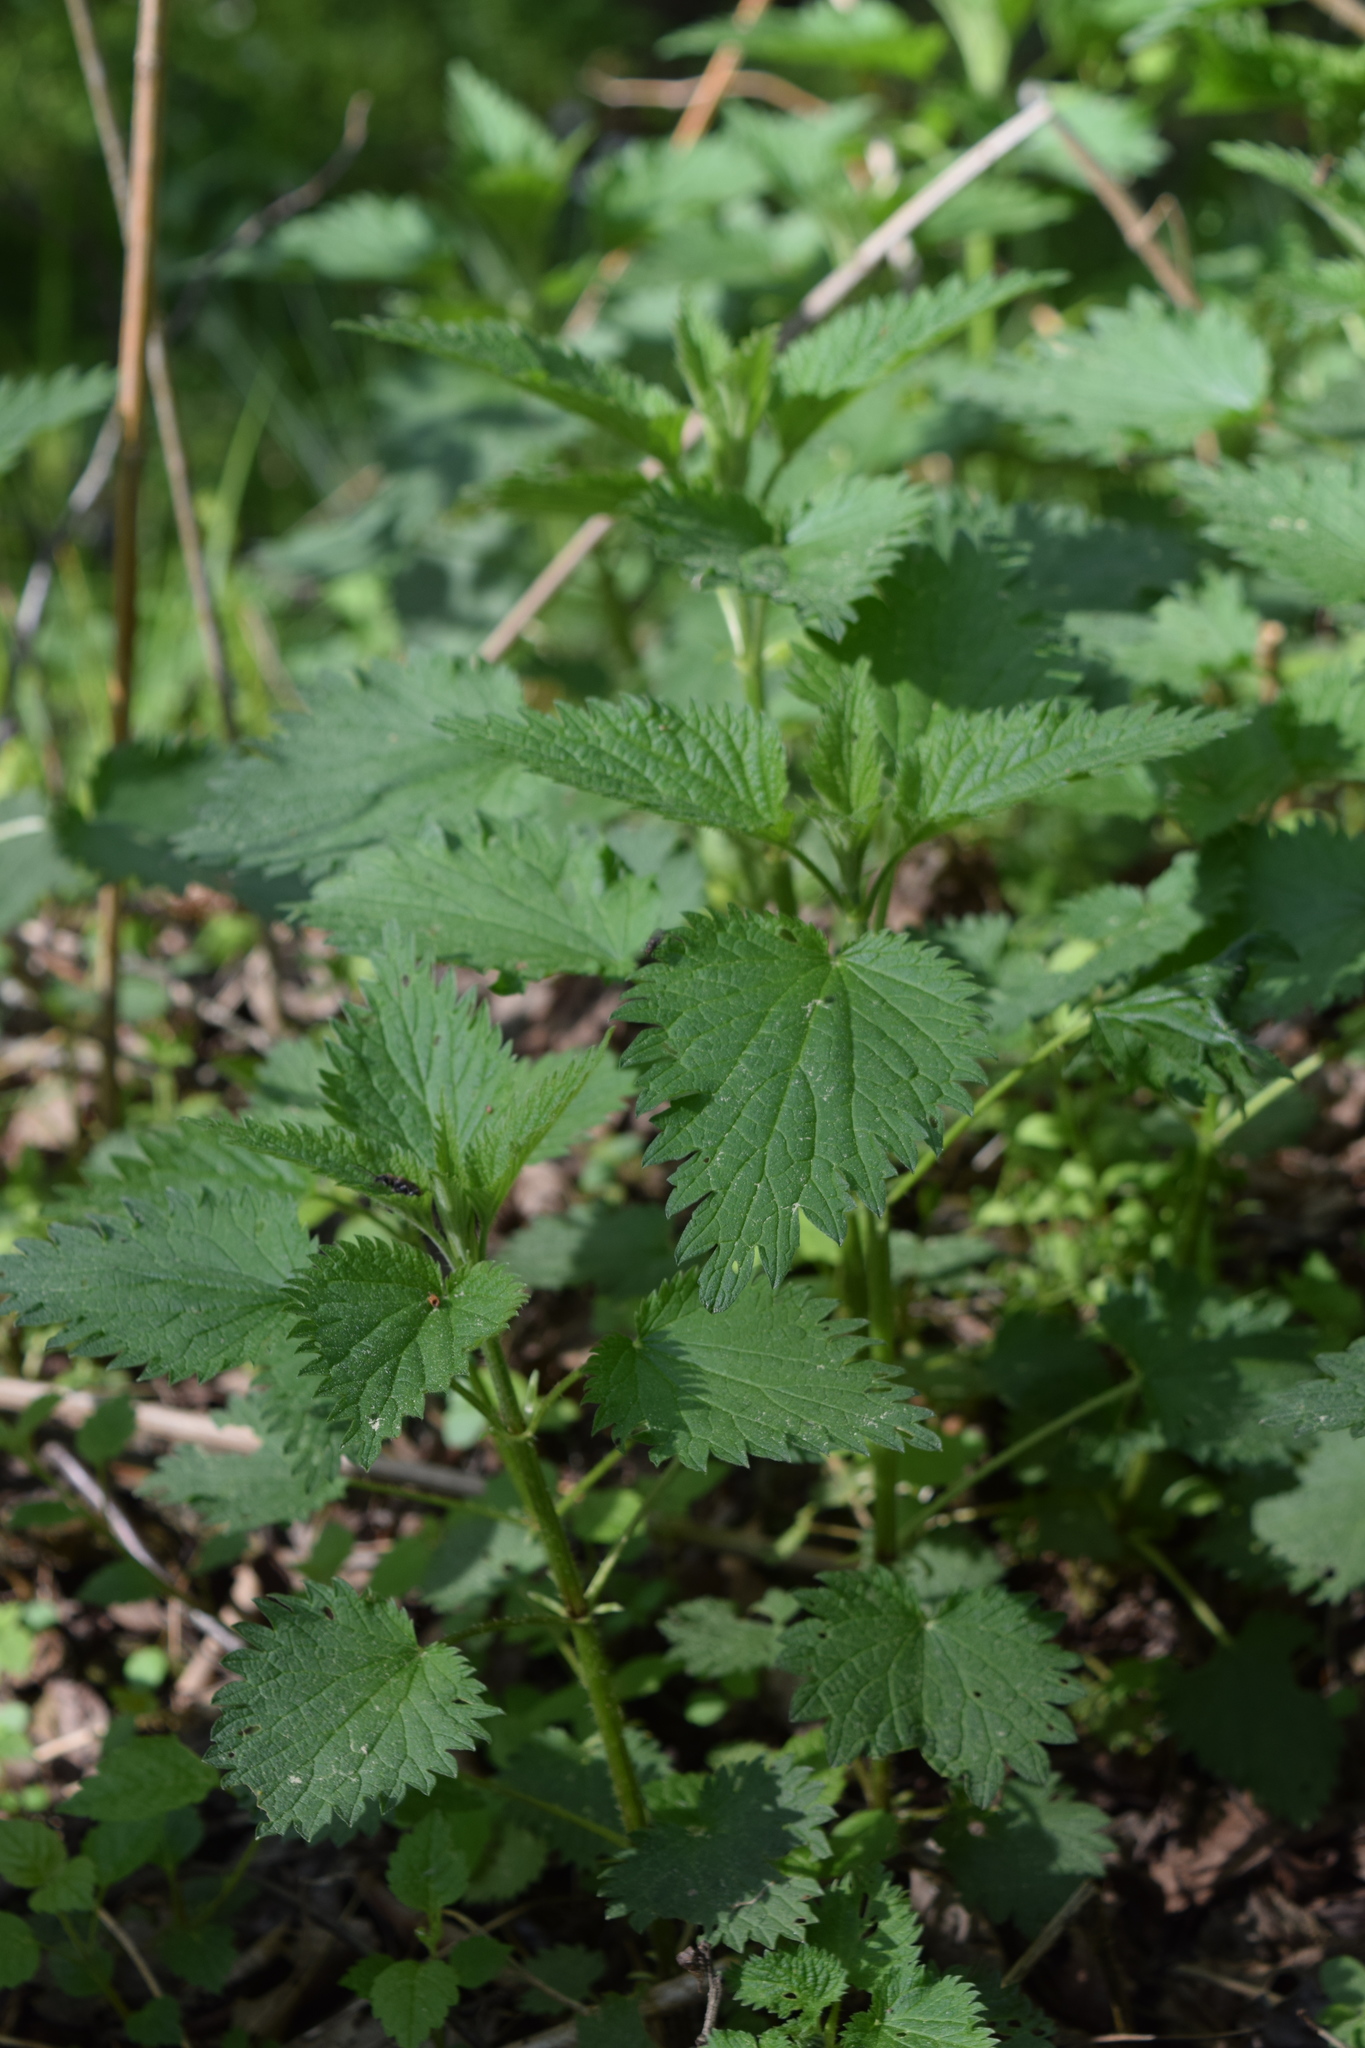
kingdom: Plantae
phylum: Tracheophyta
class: Magnoliopsida
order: Rosales
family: Urticaceae
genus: Urtica
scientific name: Urtica dioica
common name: Common nettle
